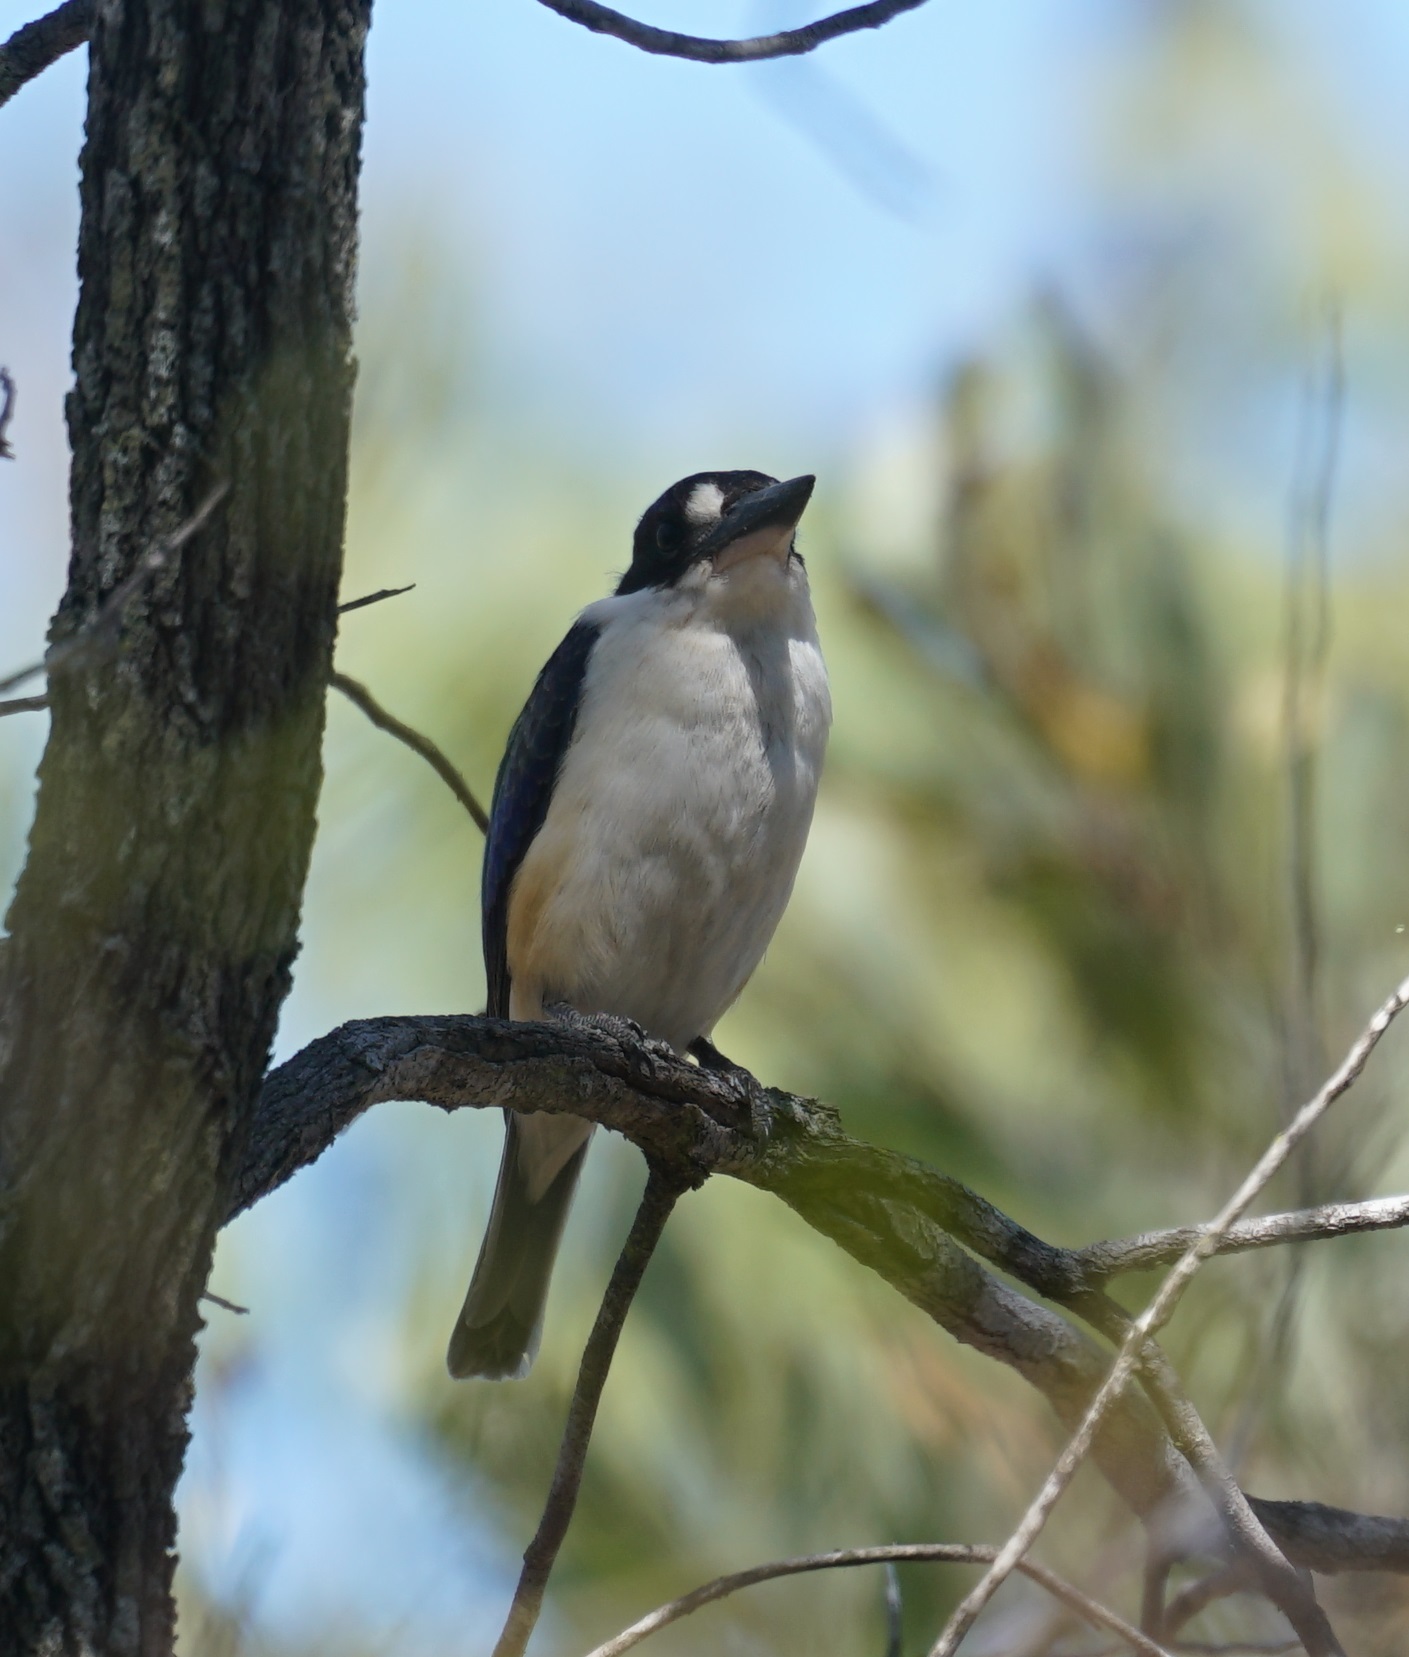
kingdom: Animalia
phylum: Chordata
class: Aves
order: Coraciiformes
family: Alcedinidae
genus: Todiramphus
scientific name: Todiramphus macleayii
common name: Forest kingfisher
